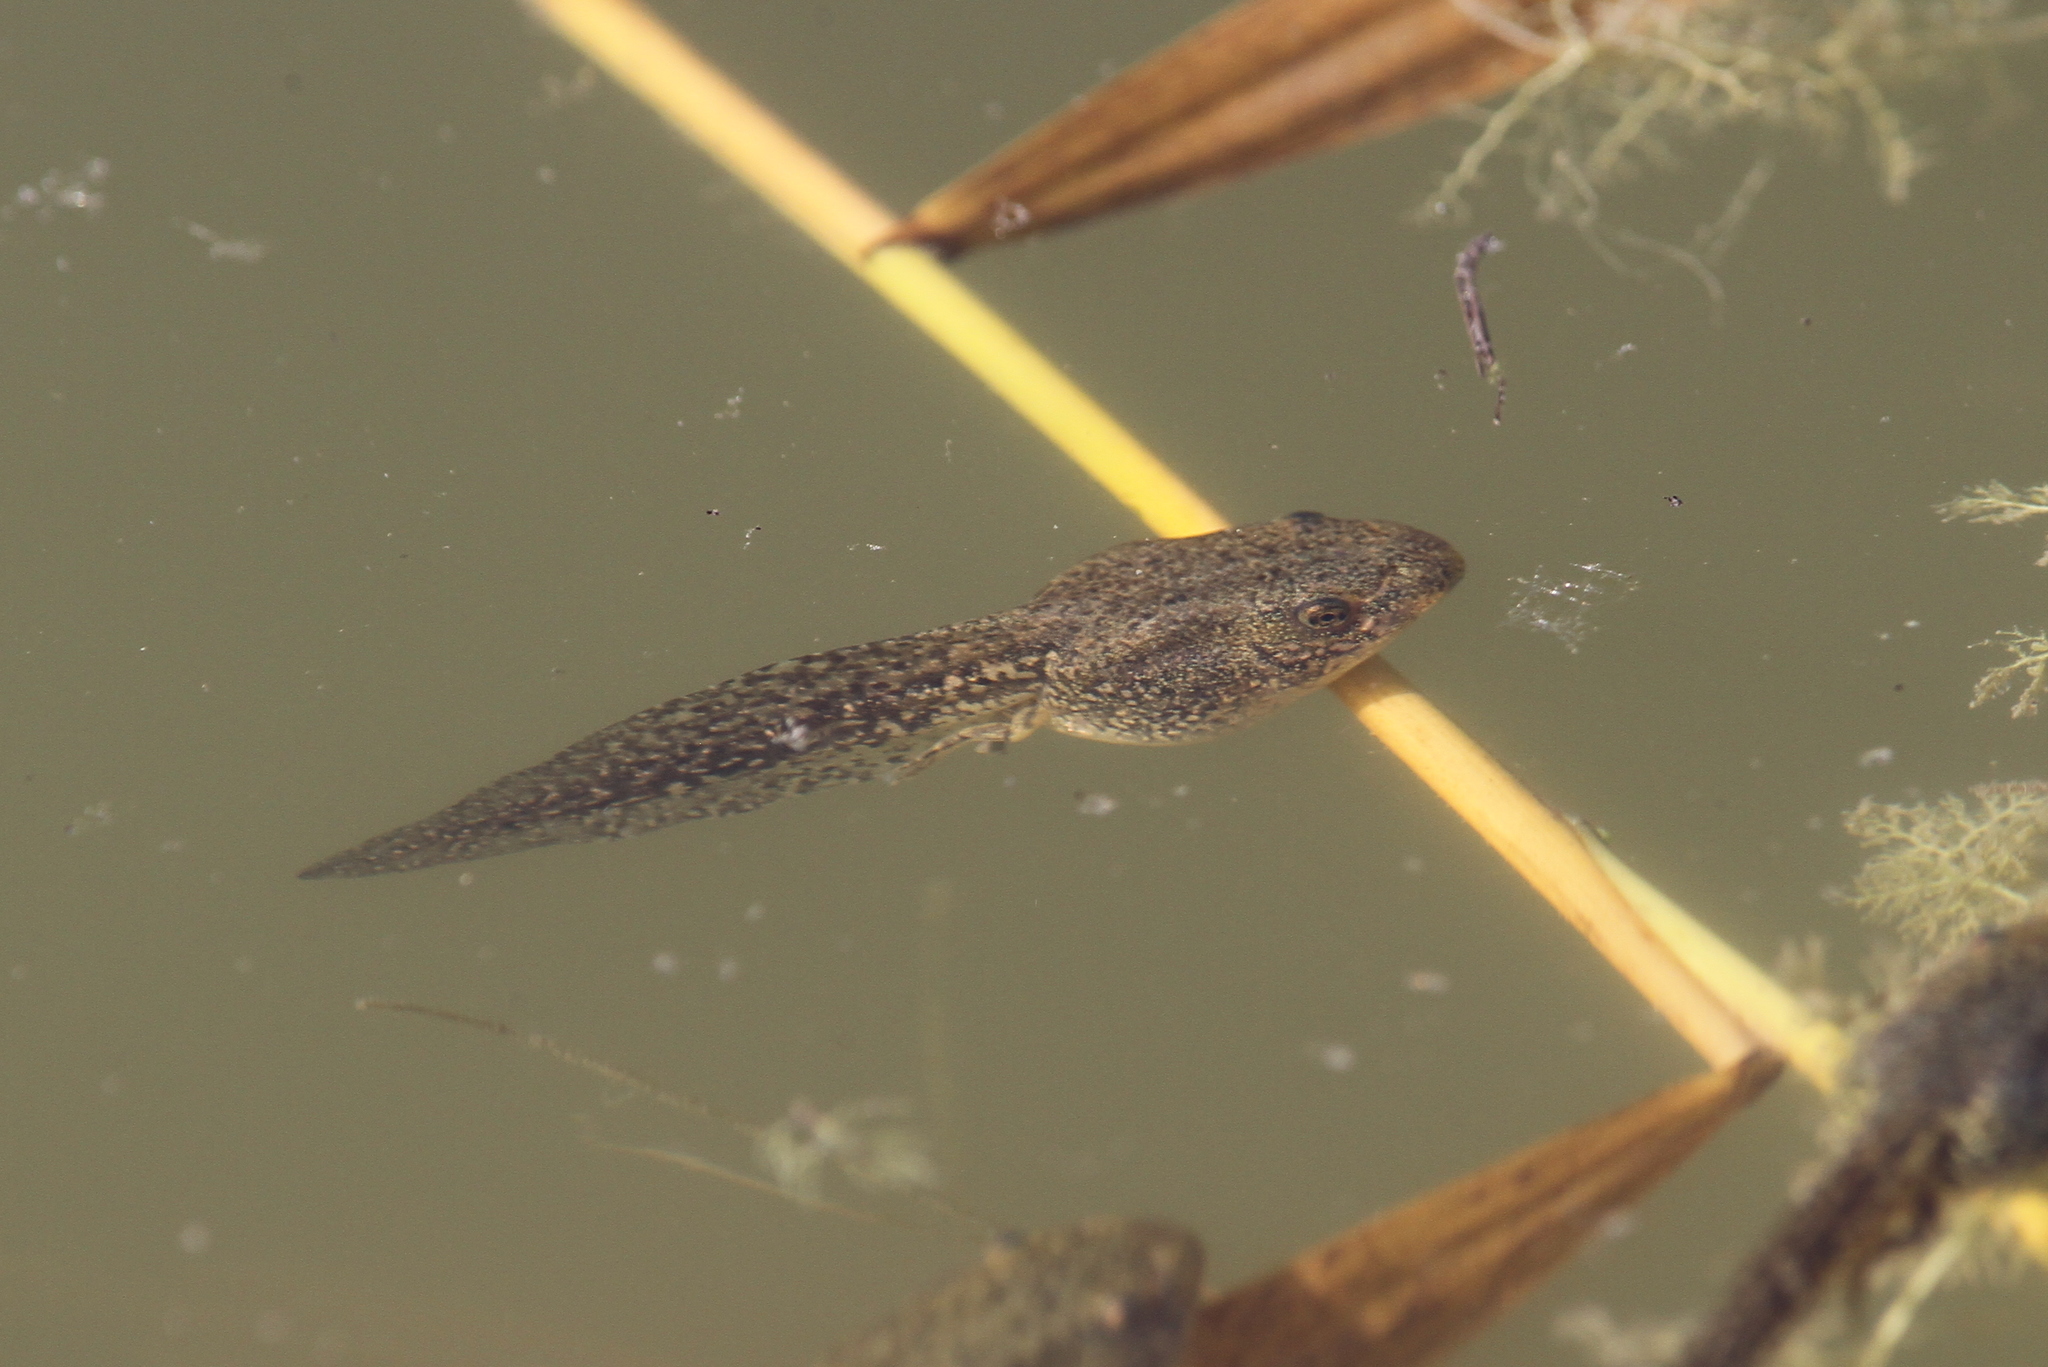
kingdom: Animalia
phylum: Chordata
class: Amphibia
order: Anura
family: Ranidae
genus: Rana
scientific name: Rana
